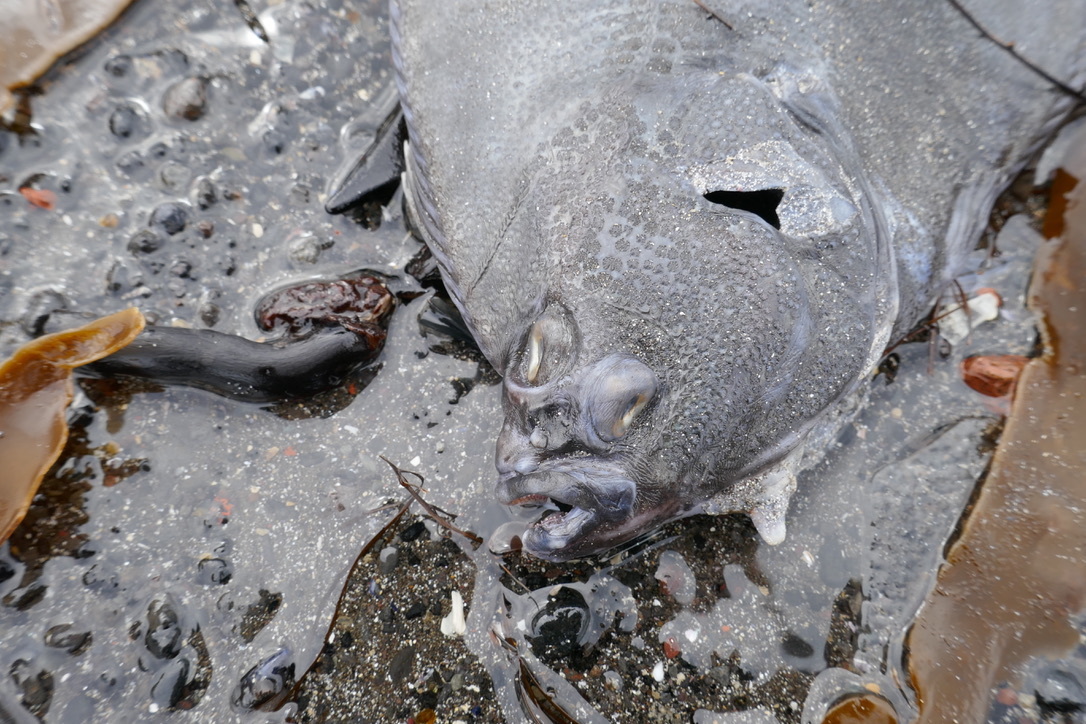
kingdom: Animalia
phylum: Chordata
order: Pleuronectiformes
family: Pleuronectidae
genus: Platichthys
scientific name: Platichthys flesus
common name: European flounder
